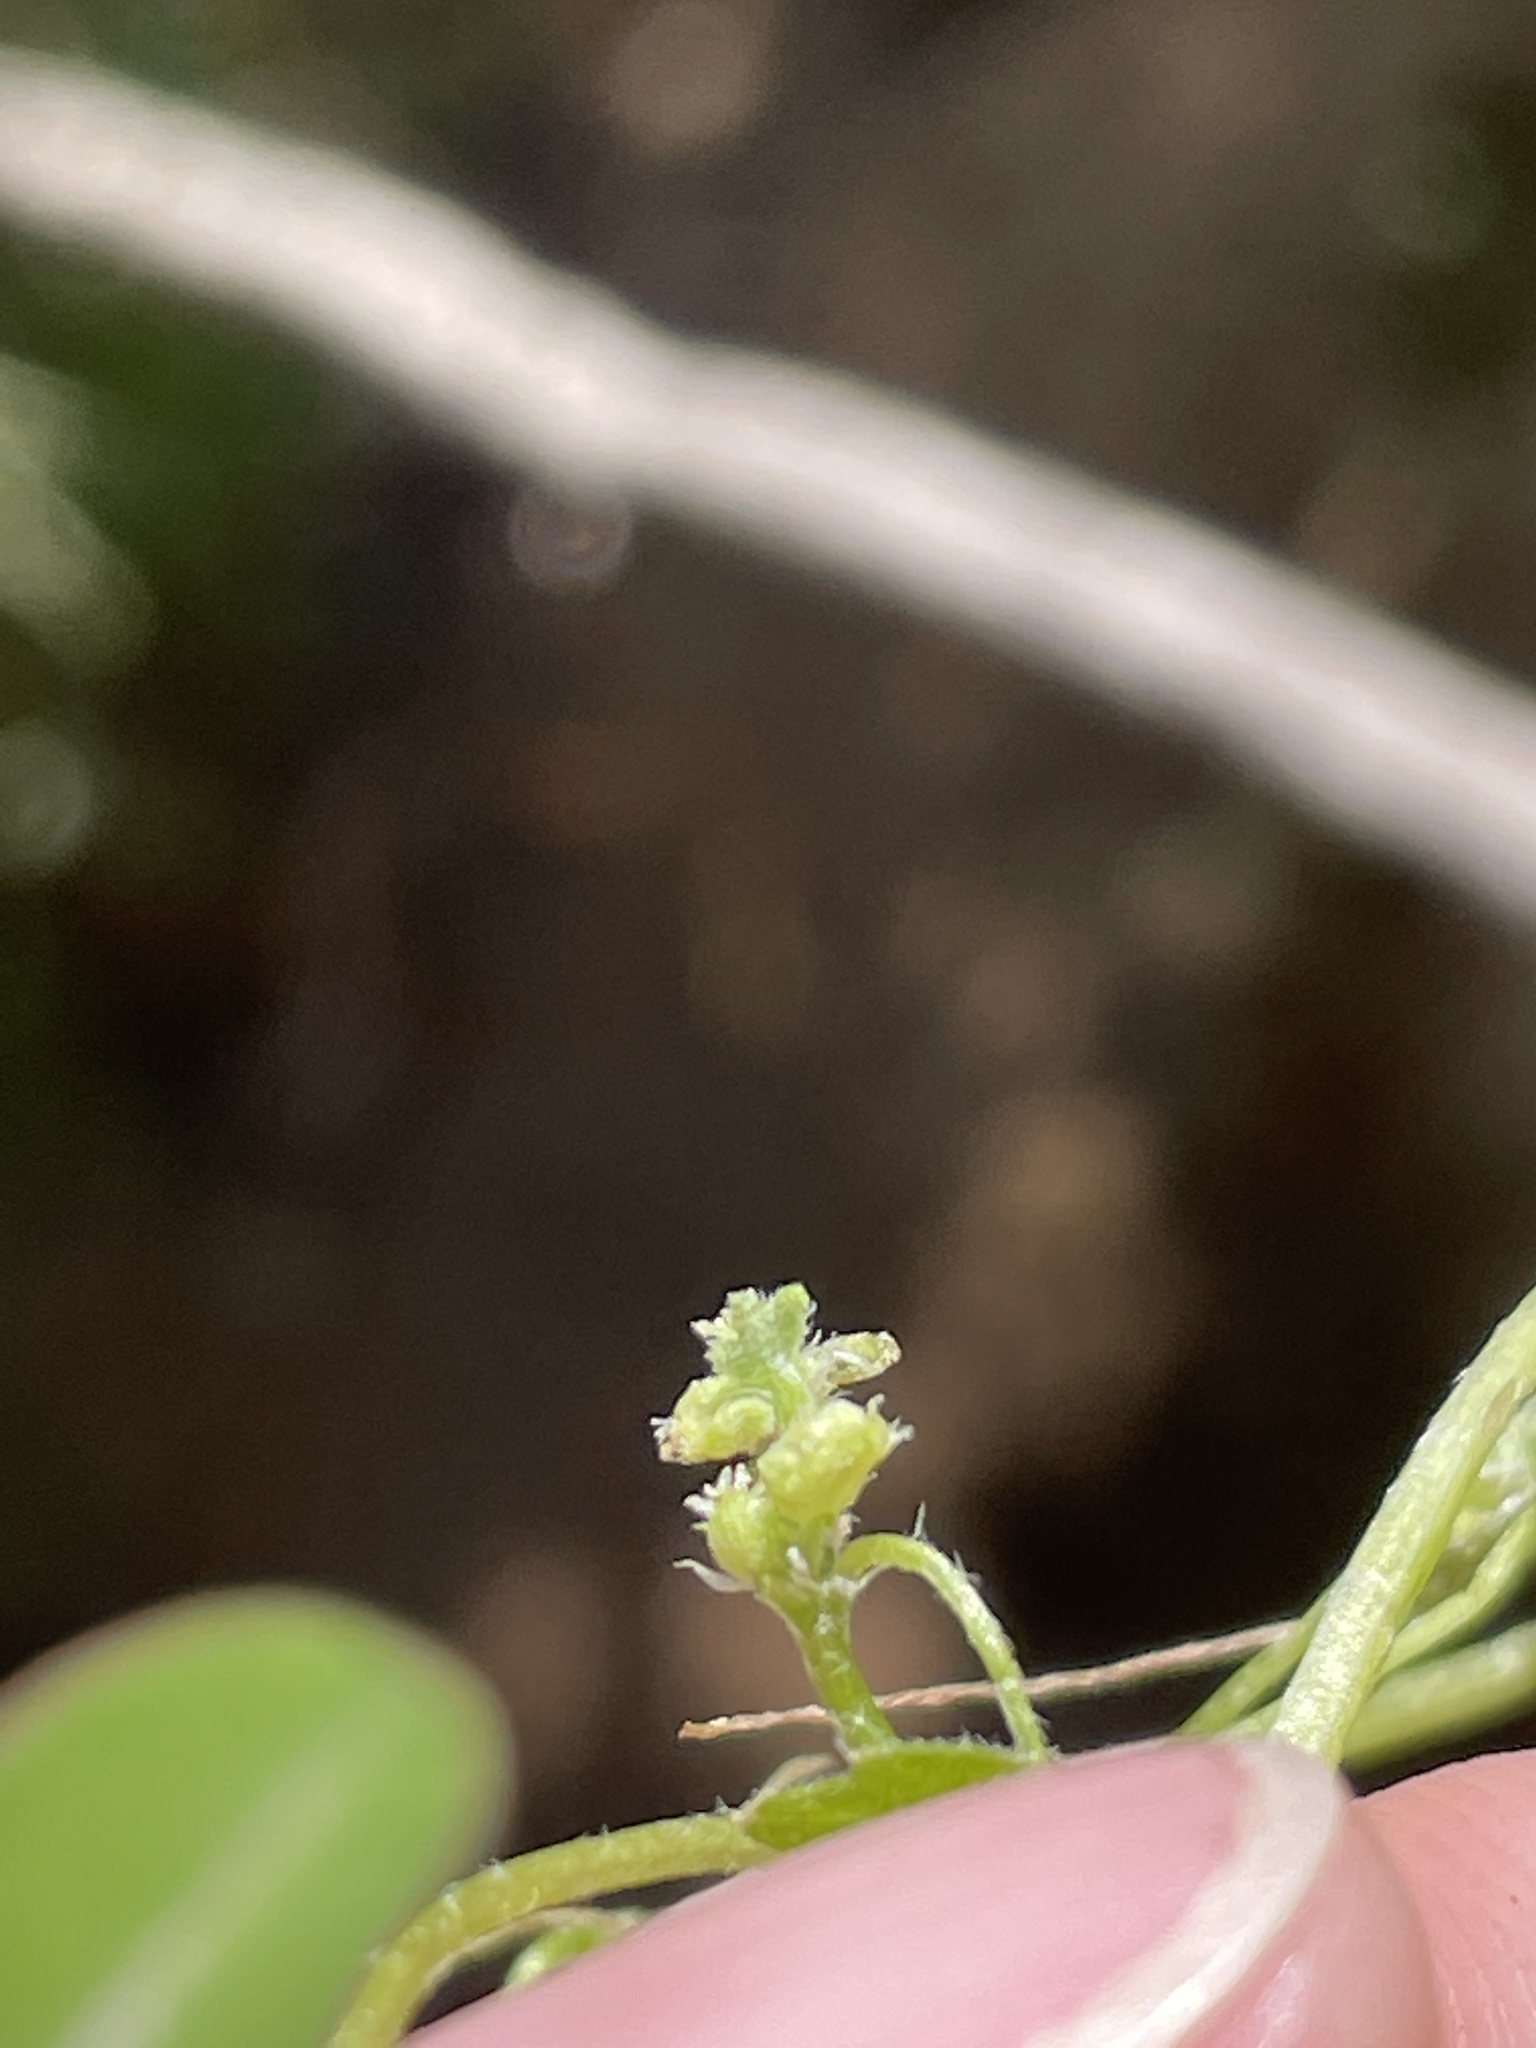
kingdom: Plantae
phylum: Tracheophyta
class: Magnoliopsida
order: Apiales
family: Apiaceae
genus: Bowlesia
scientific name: Bowlesia incana
